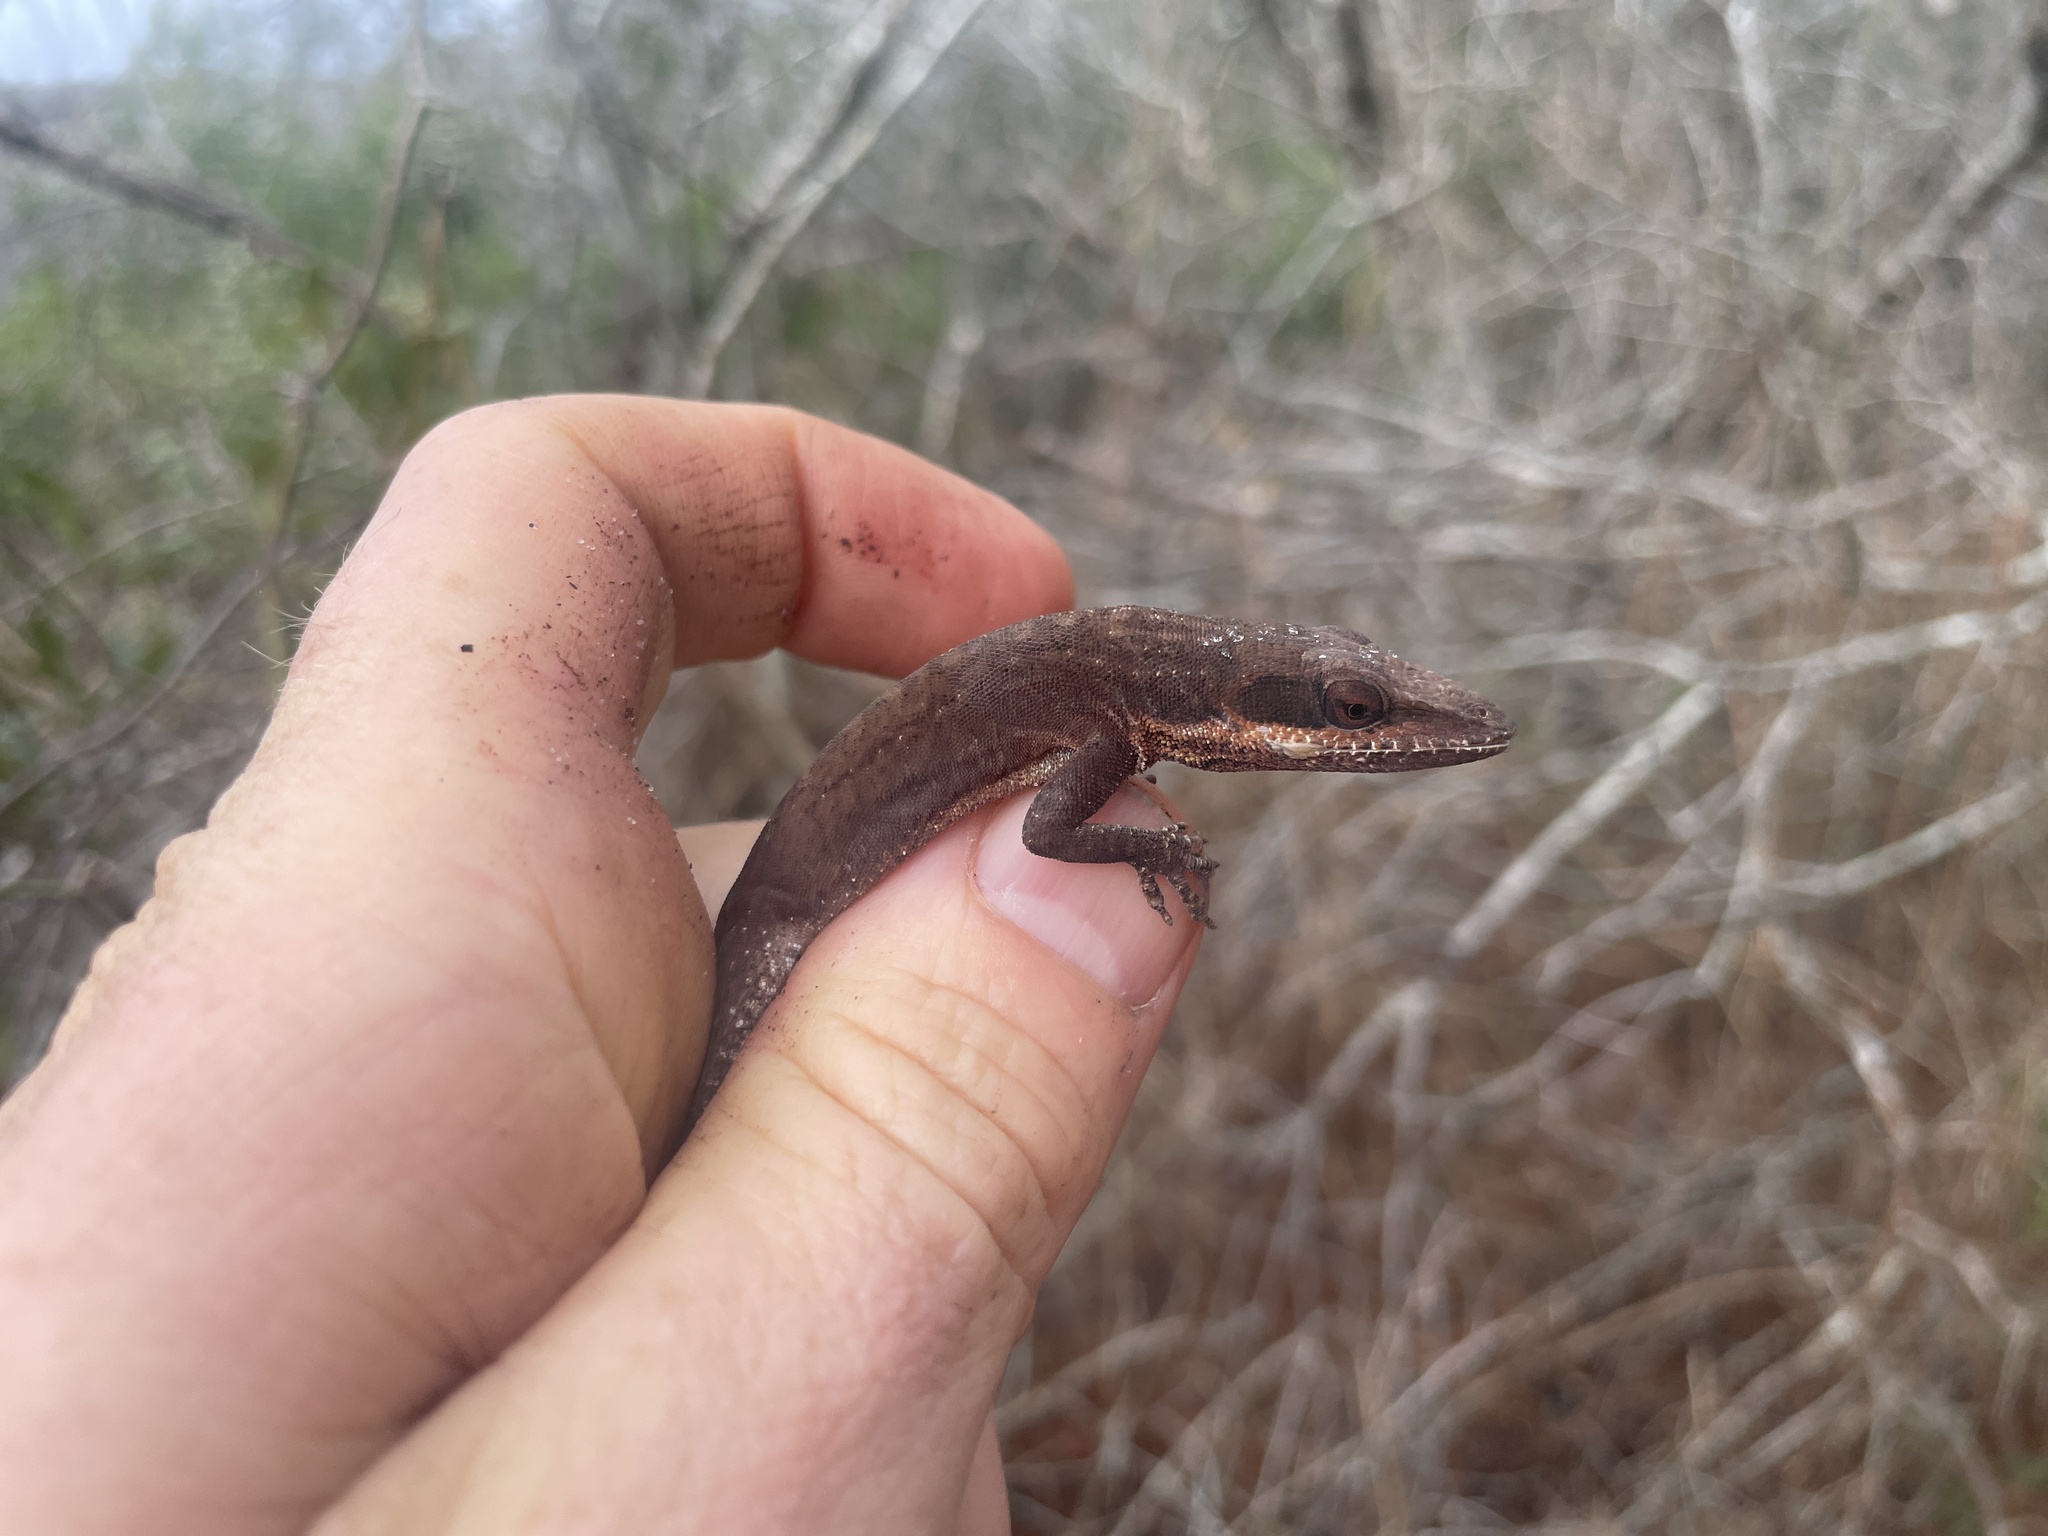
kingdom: Animalia
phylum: Chordata
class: Squamata
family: Dactyloidae
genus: Anolis
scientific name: Anolis carolinensis
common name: Green anole
